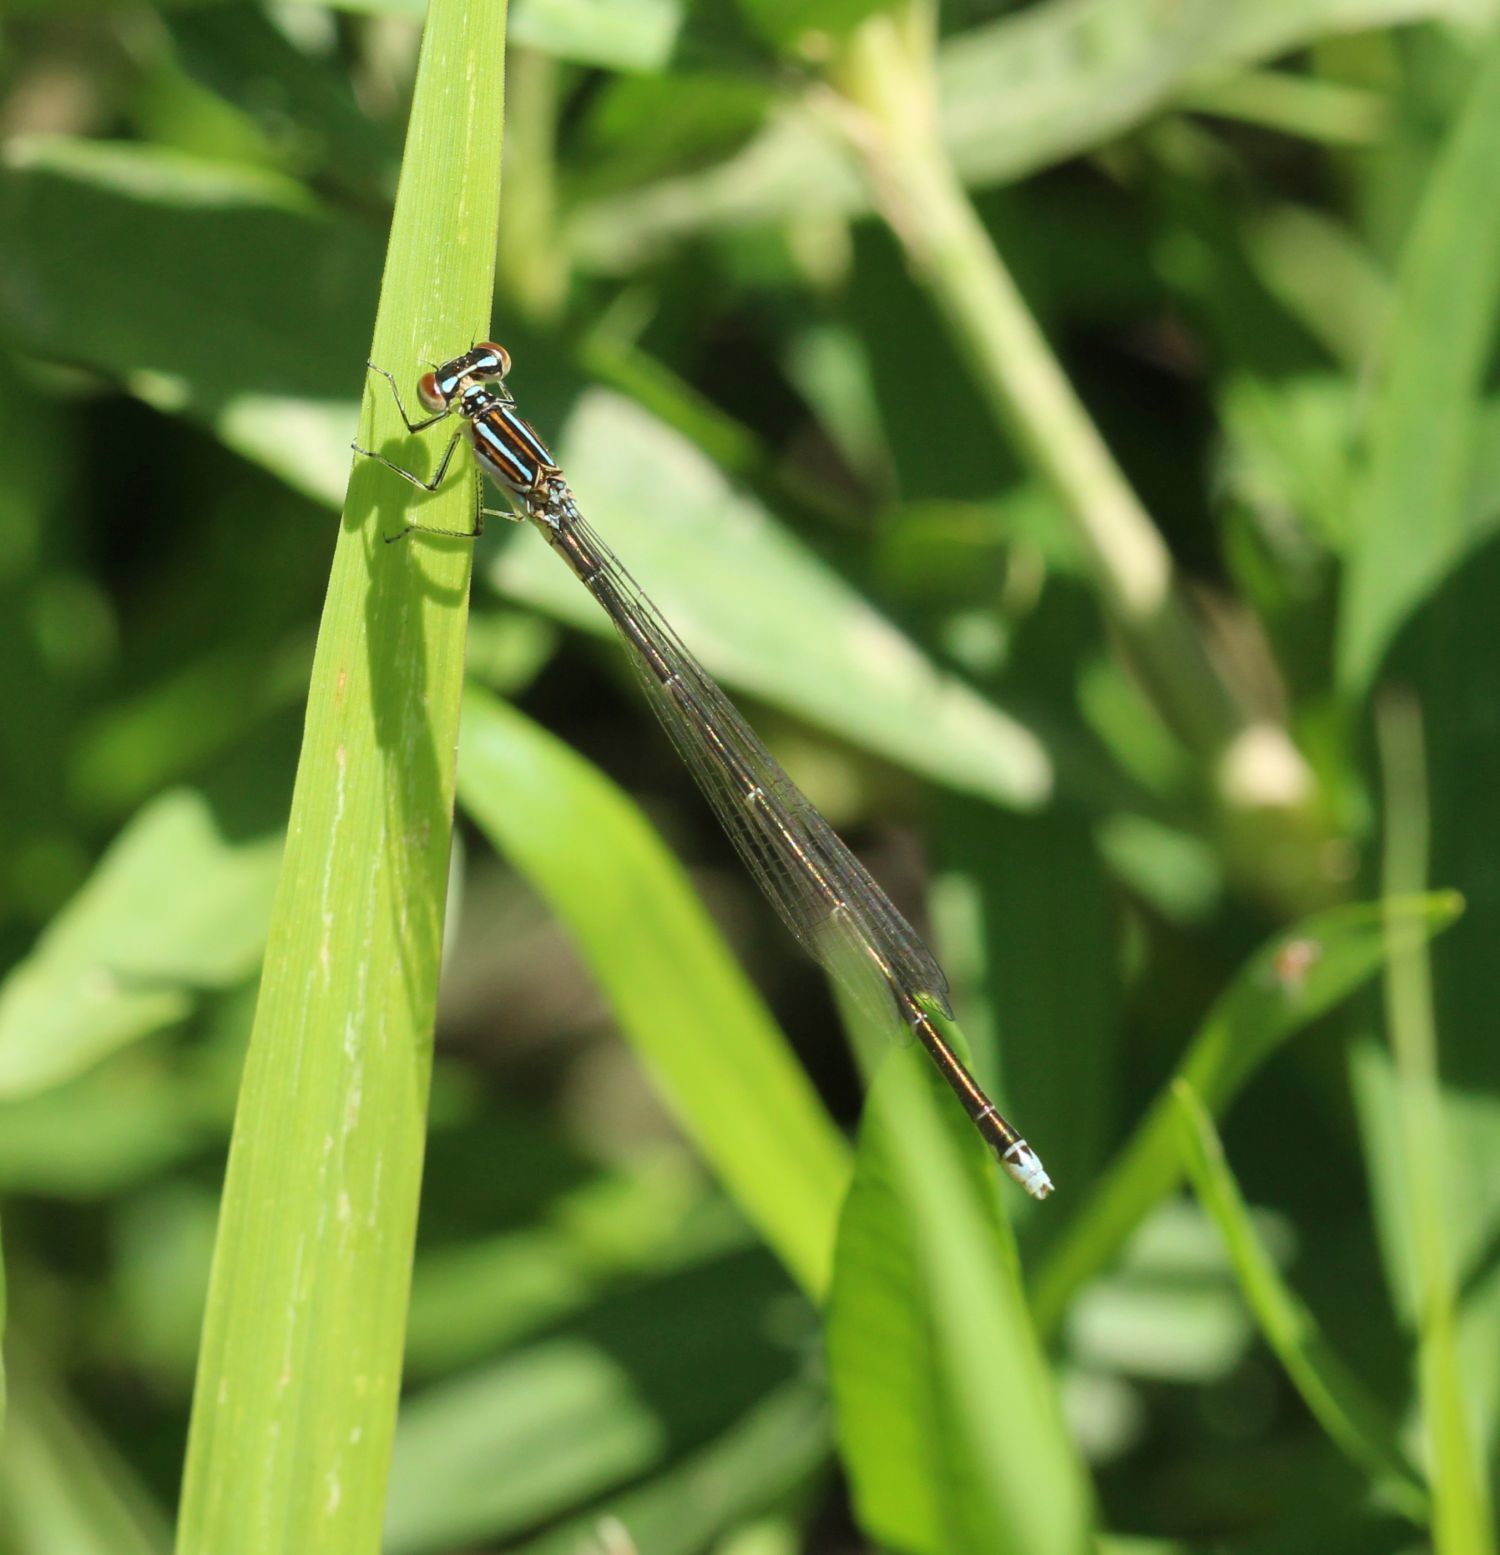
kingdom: Animalia
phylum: Arthropoda
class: Insecta
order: Odonata
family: Coenagrionidae
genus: Enallagma
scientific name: Enallagma exsulans
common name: Stream bluet
